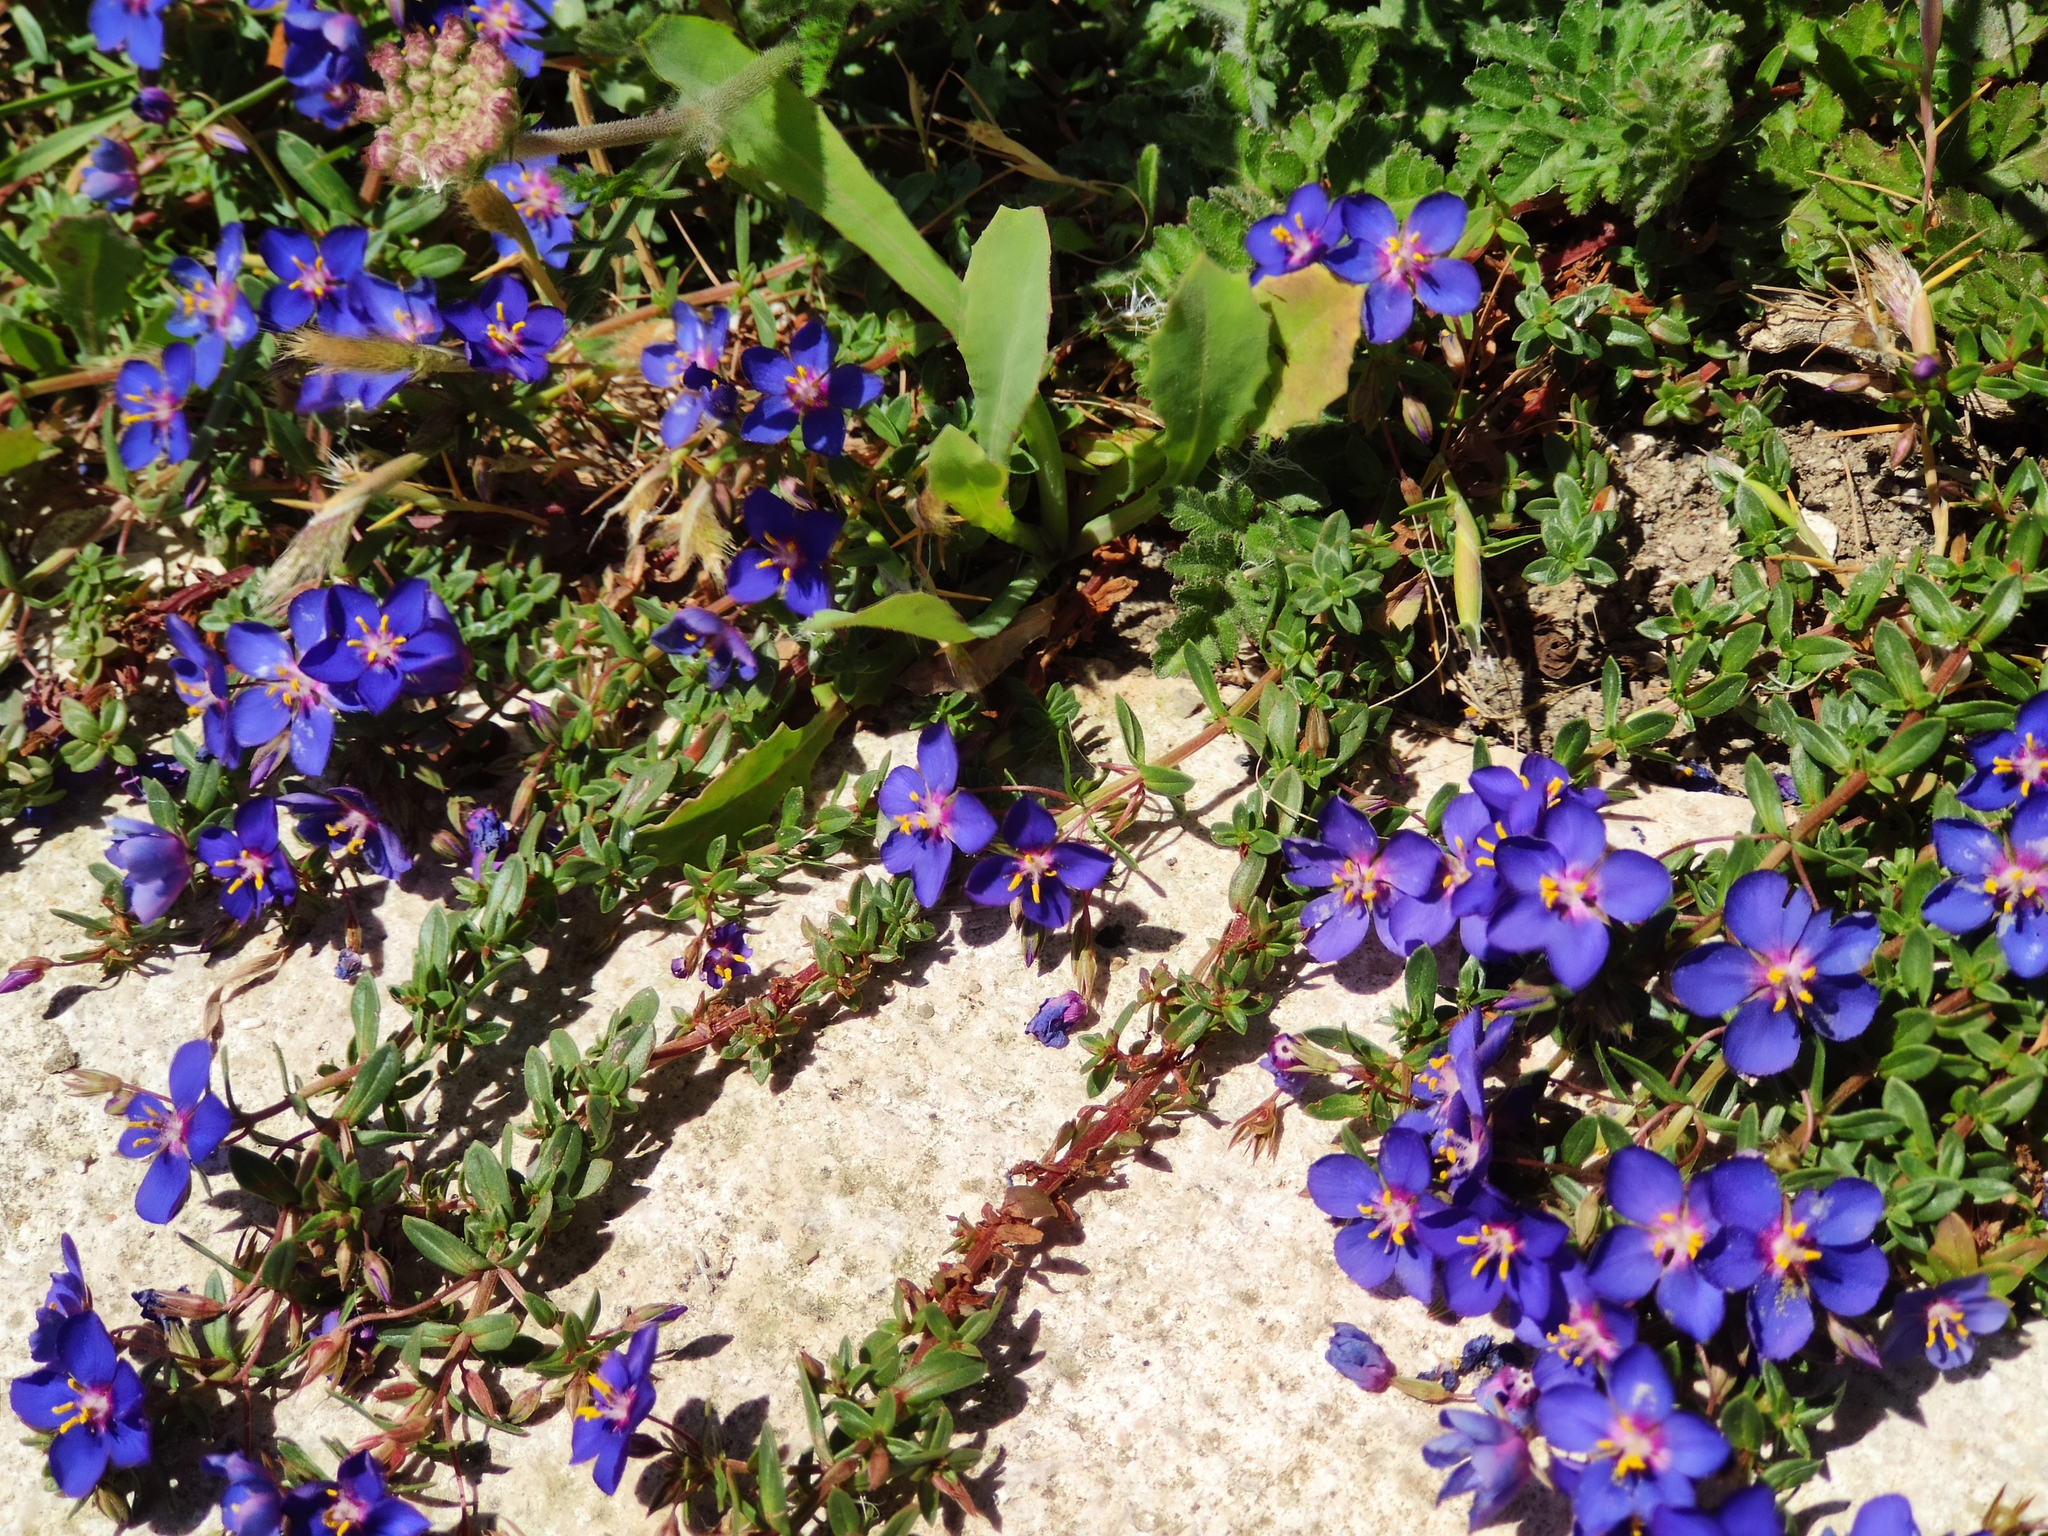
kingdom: Plantae
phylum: Tracheophyta
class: Magnoliopsida
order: Ericales
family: Primulaceae
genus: Lysimachia
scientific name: Lysimachia monelli
